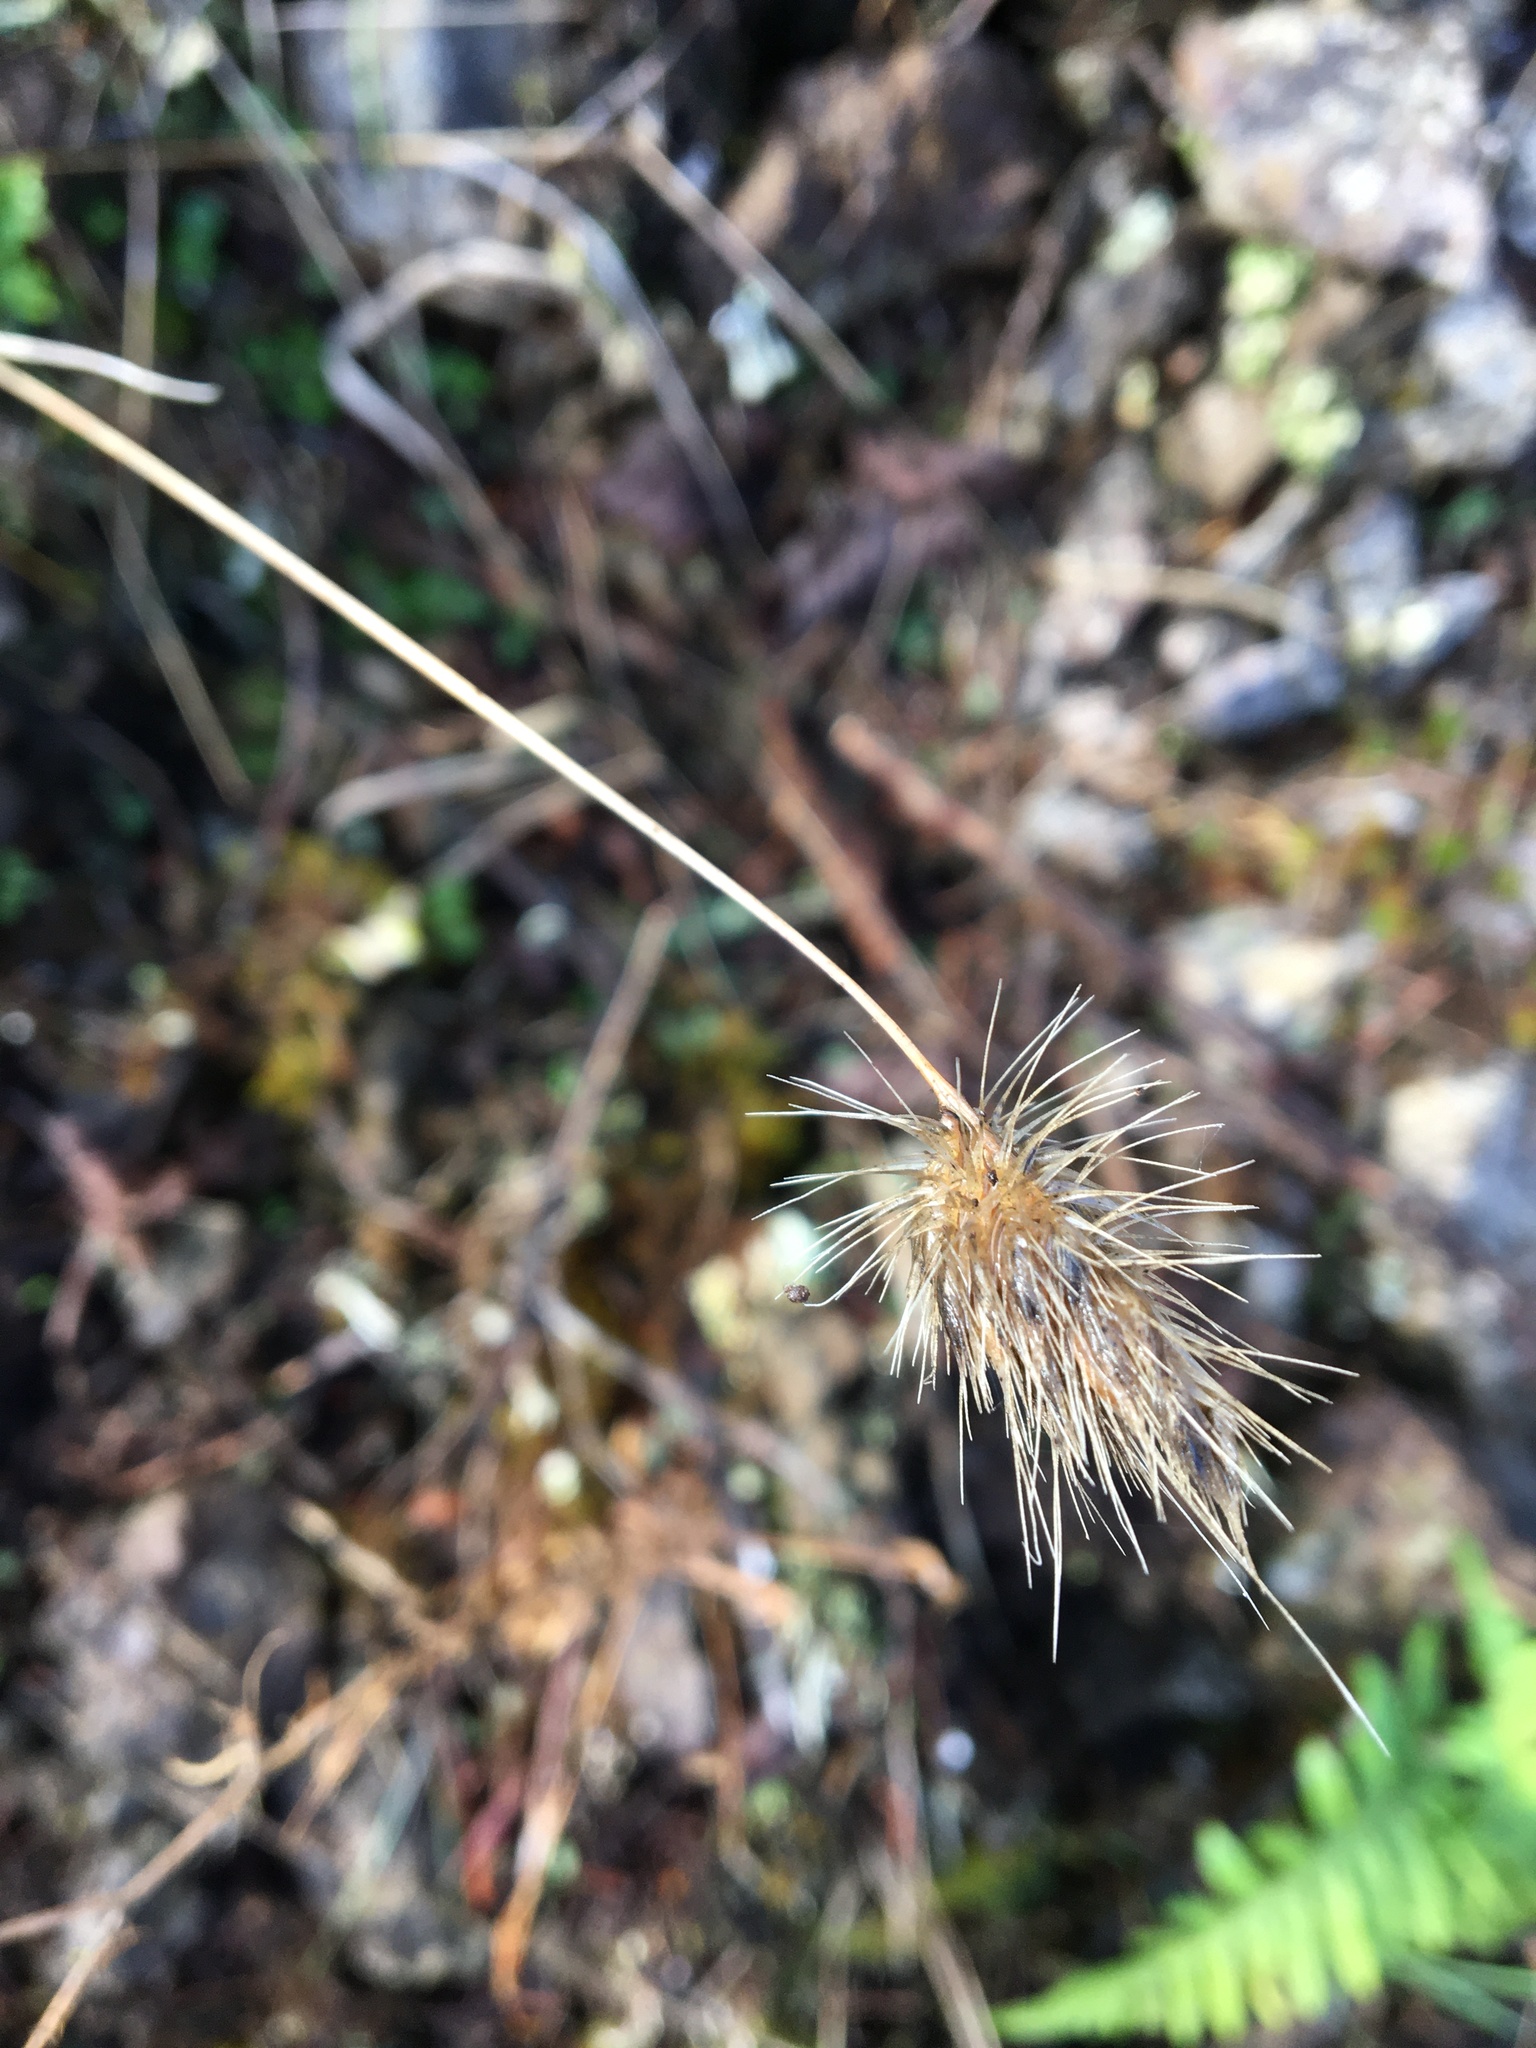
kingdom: Plantae
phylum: Tracheophyta
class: Liliopsida
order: Poales
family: Poaceae
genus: Cynosurus
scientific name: Cynosurus echinatus
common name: Rough dog's-tail
